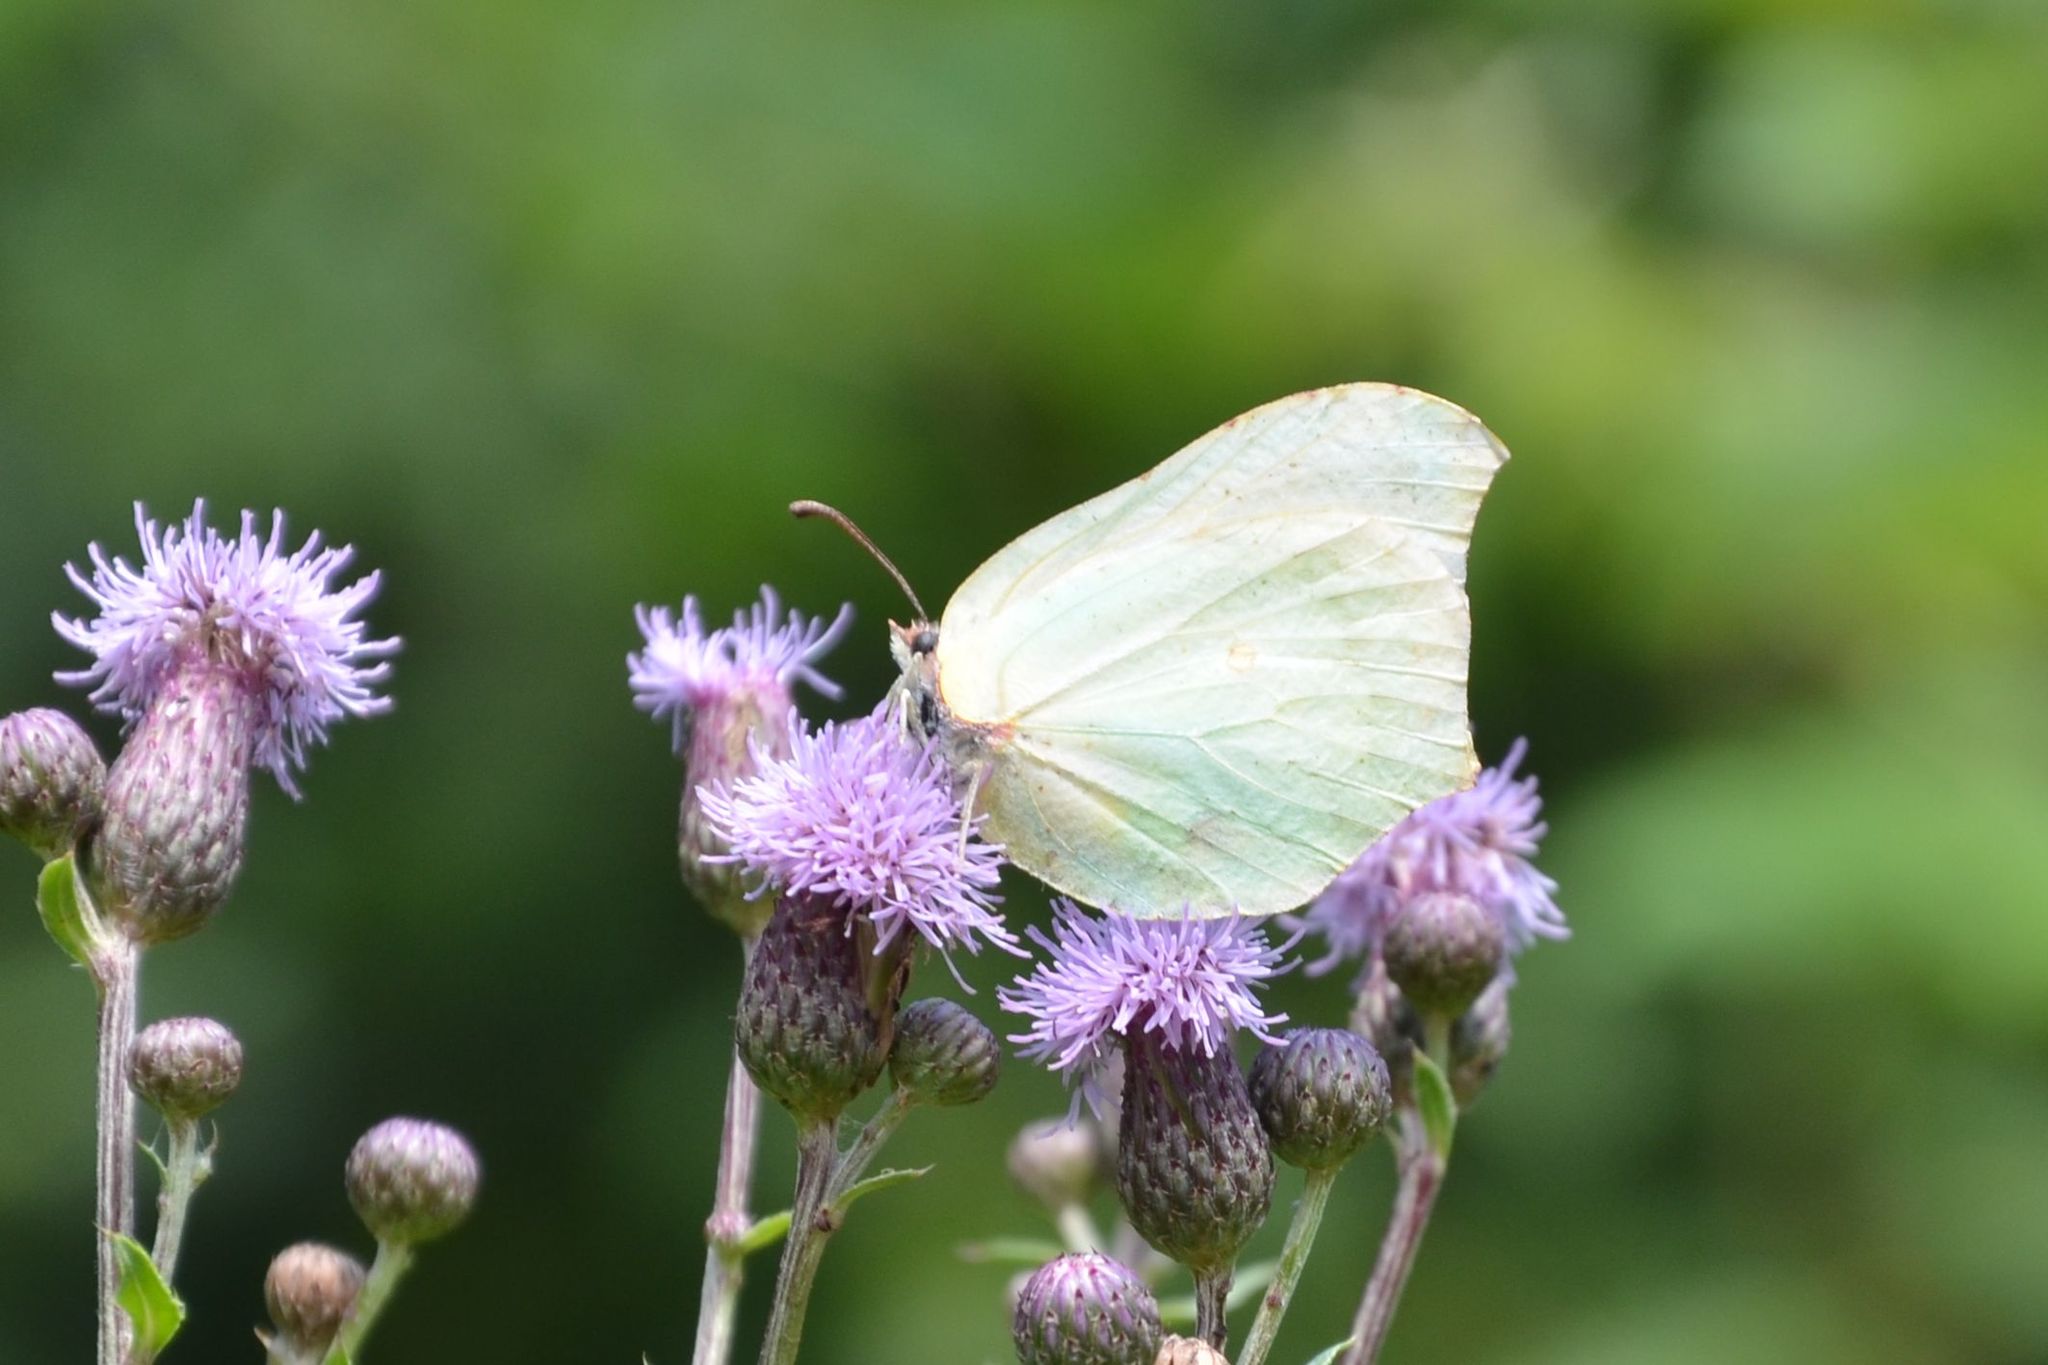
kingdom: Animalia
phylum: Arthropoda
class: Insecta
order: Lepidoptera
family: Pieridae
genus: Gonepteryx
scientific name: Gonepteryx rhamni
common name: Brimstone
